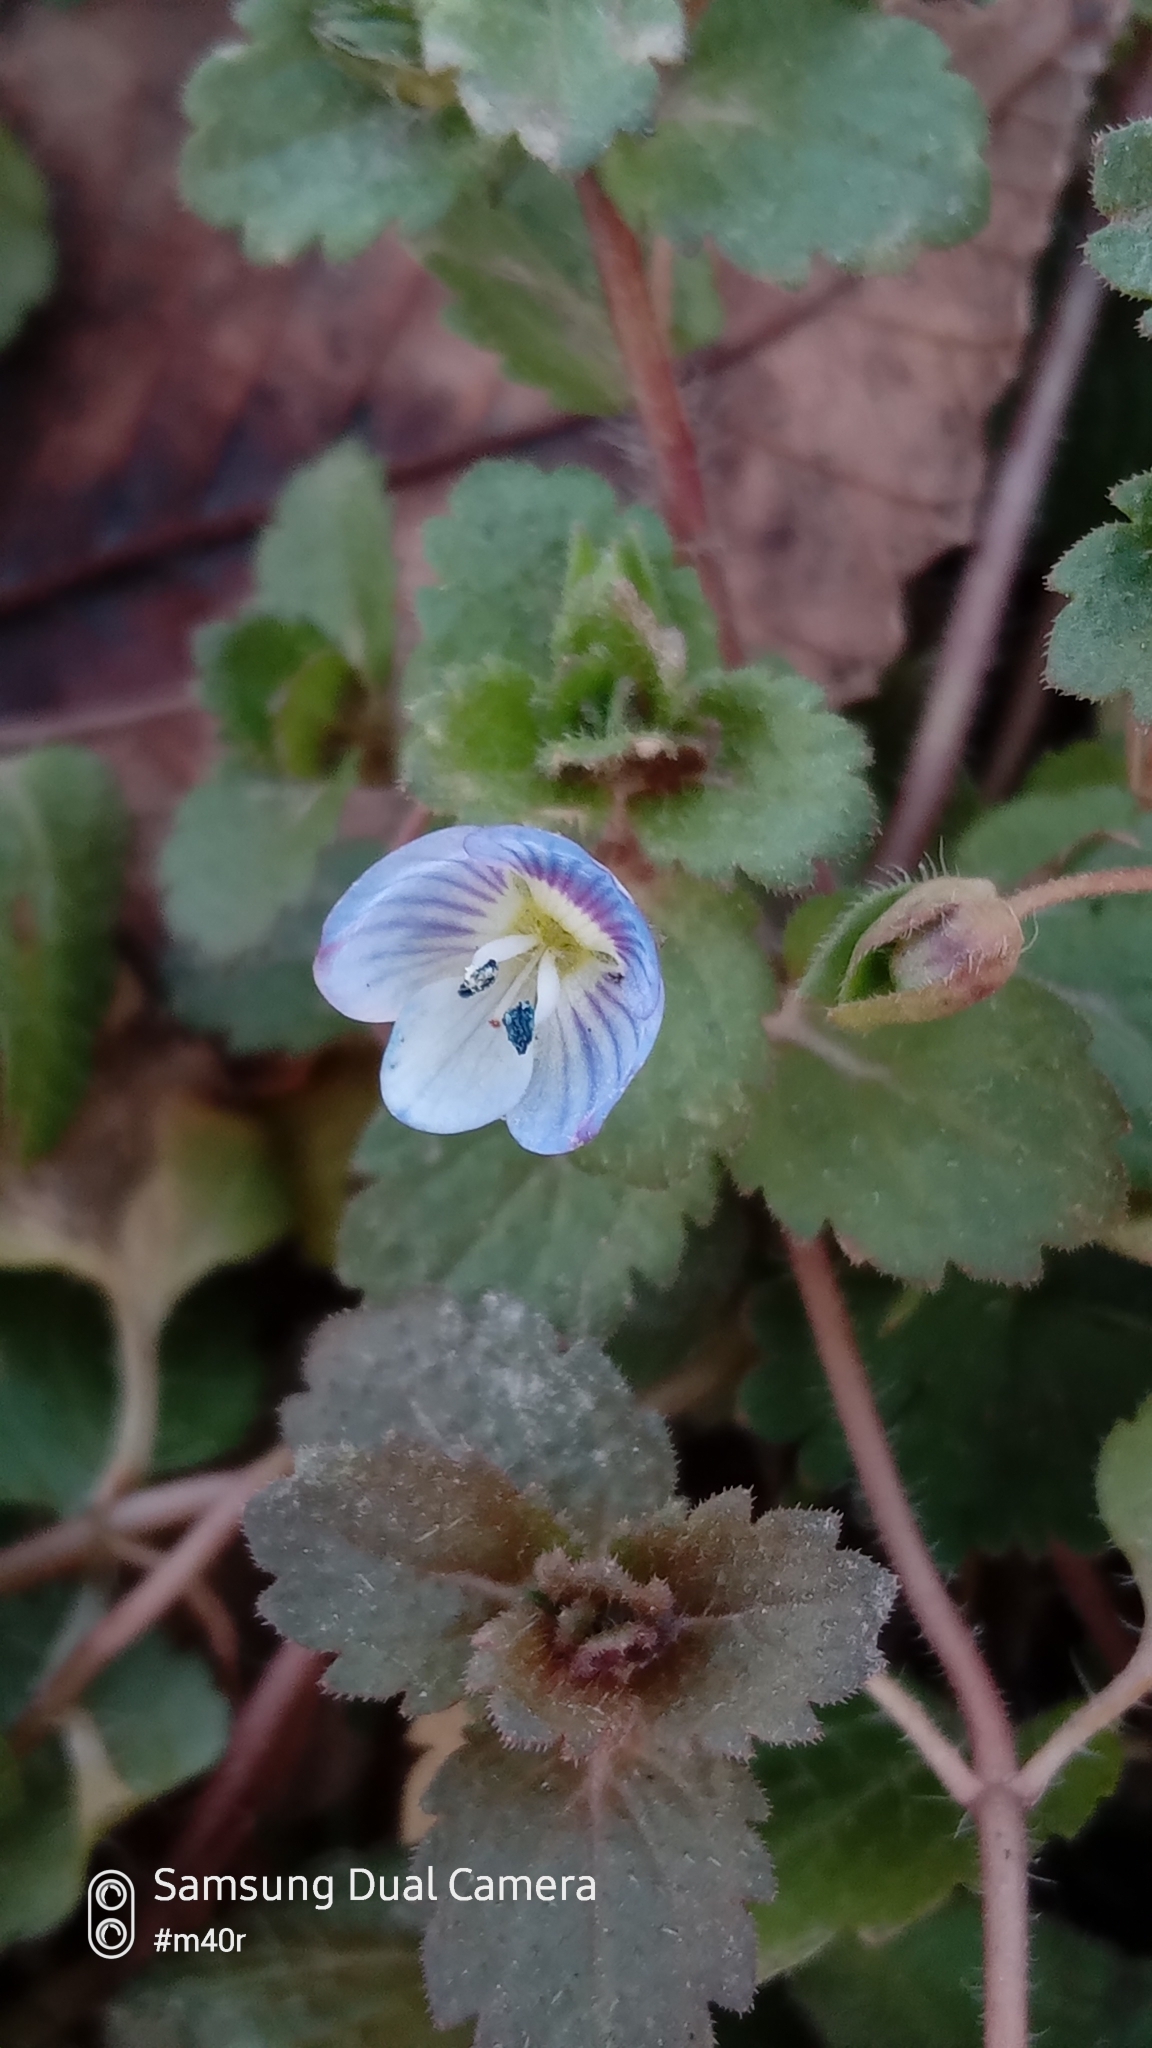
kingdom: Plantae
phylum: Tracheophyta
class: Magnoliopsida
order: Lamiales
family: Plantaginaceae
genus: Veronica
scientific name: Veronica persica
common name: Common field-speedwell
